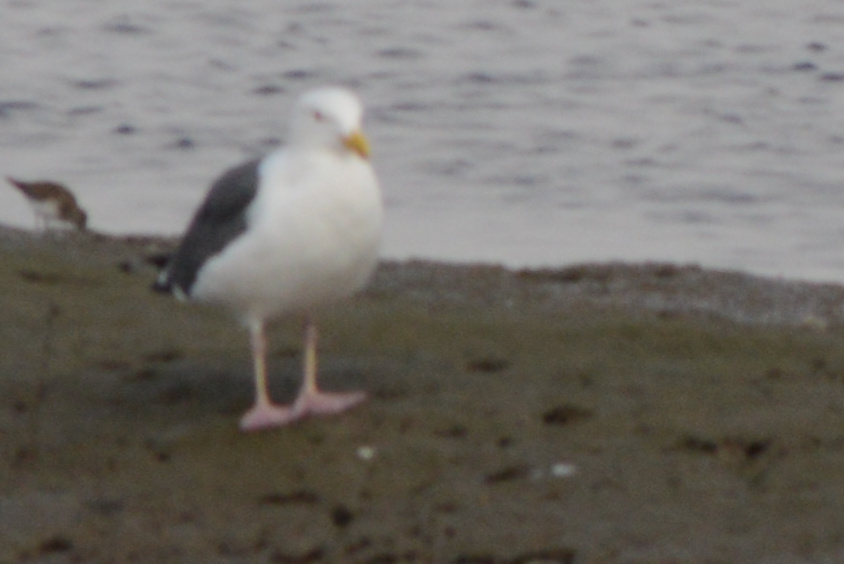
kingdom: Animalia
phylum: Chordata
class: Aves
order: Charadriiformes
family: Laridae
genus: Larus
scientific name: Larus occidentalis
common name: Western gull
